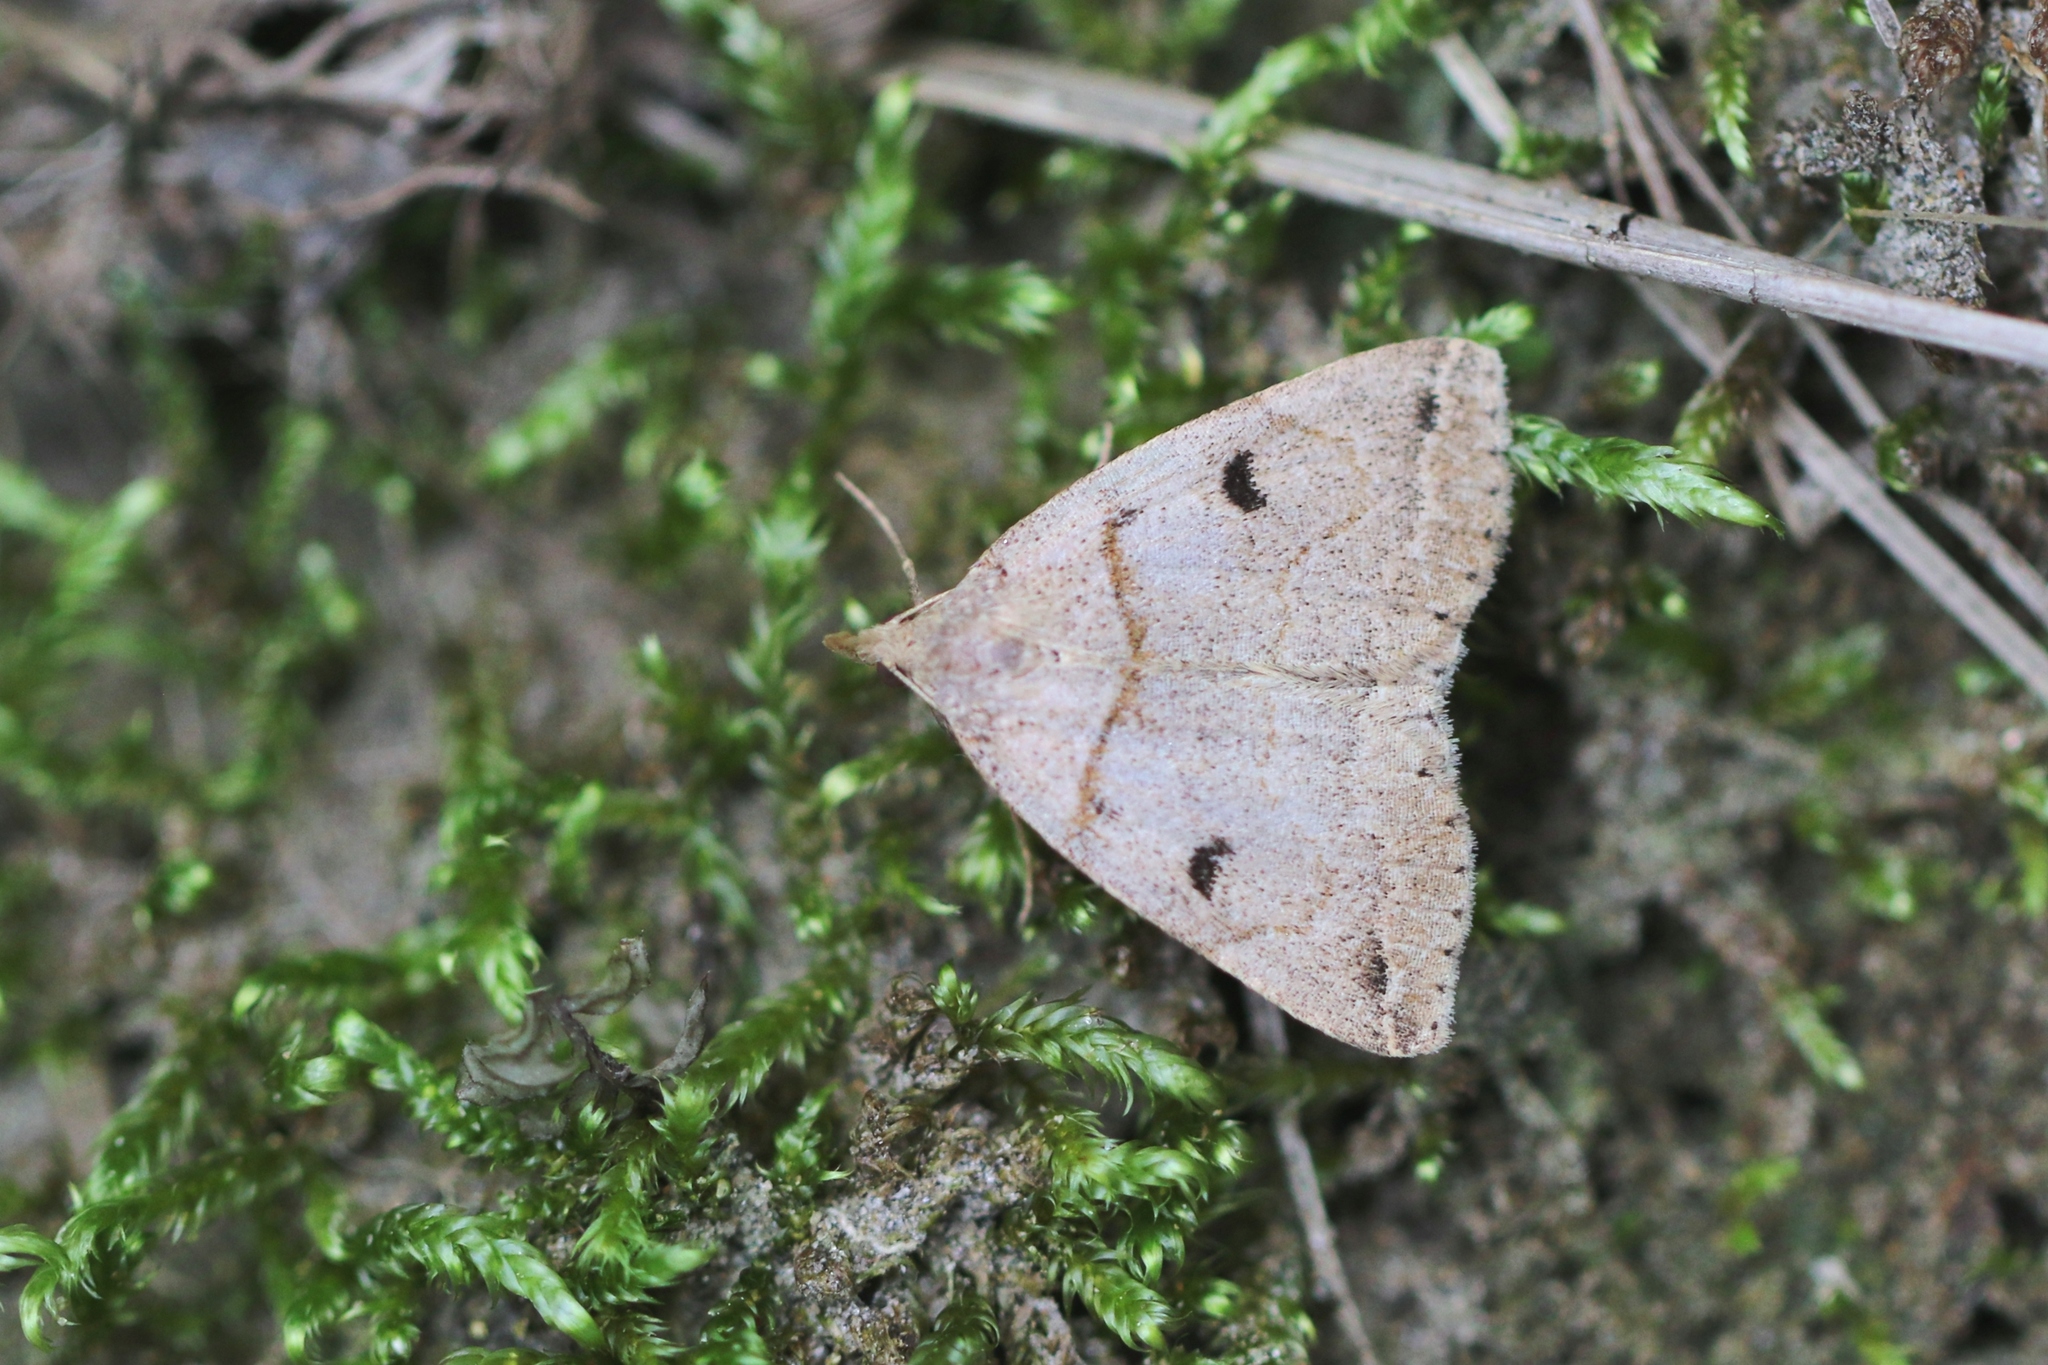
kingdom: Animalia
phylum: Arthropoda
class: Insecta
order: Lepidoptera
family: Erebidae
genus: Zanclognatha
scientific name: Zanclognatha laevigata
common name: Variable fan-foot
